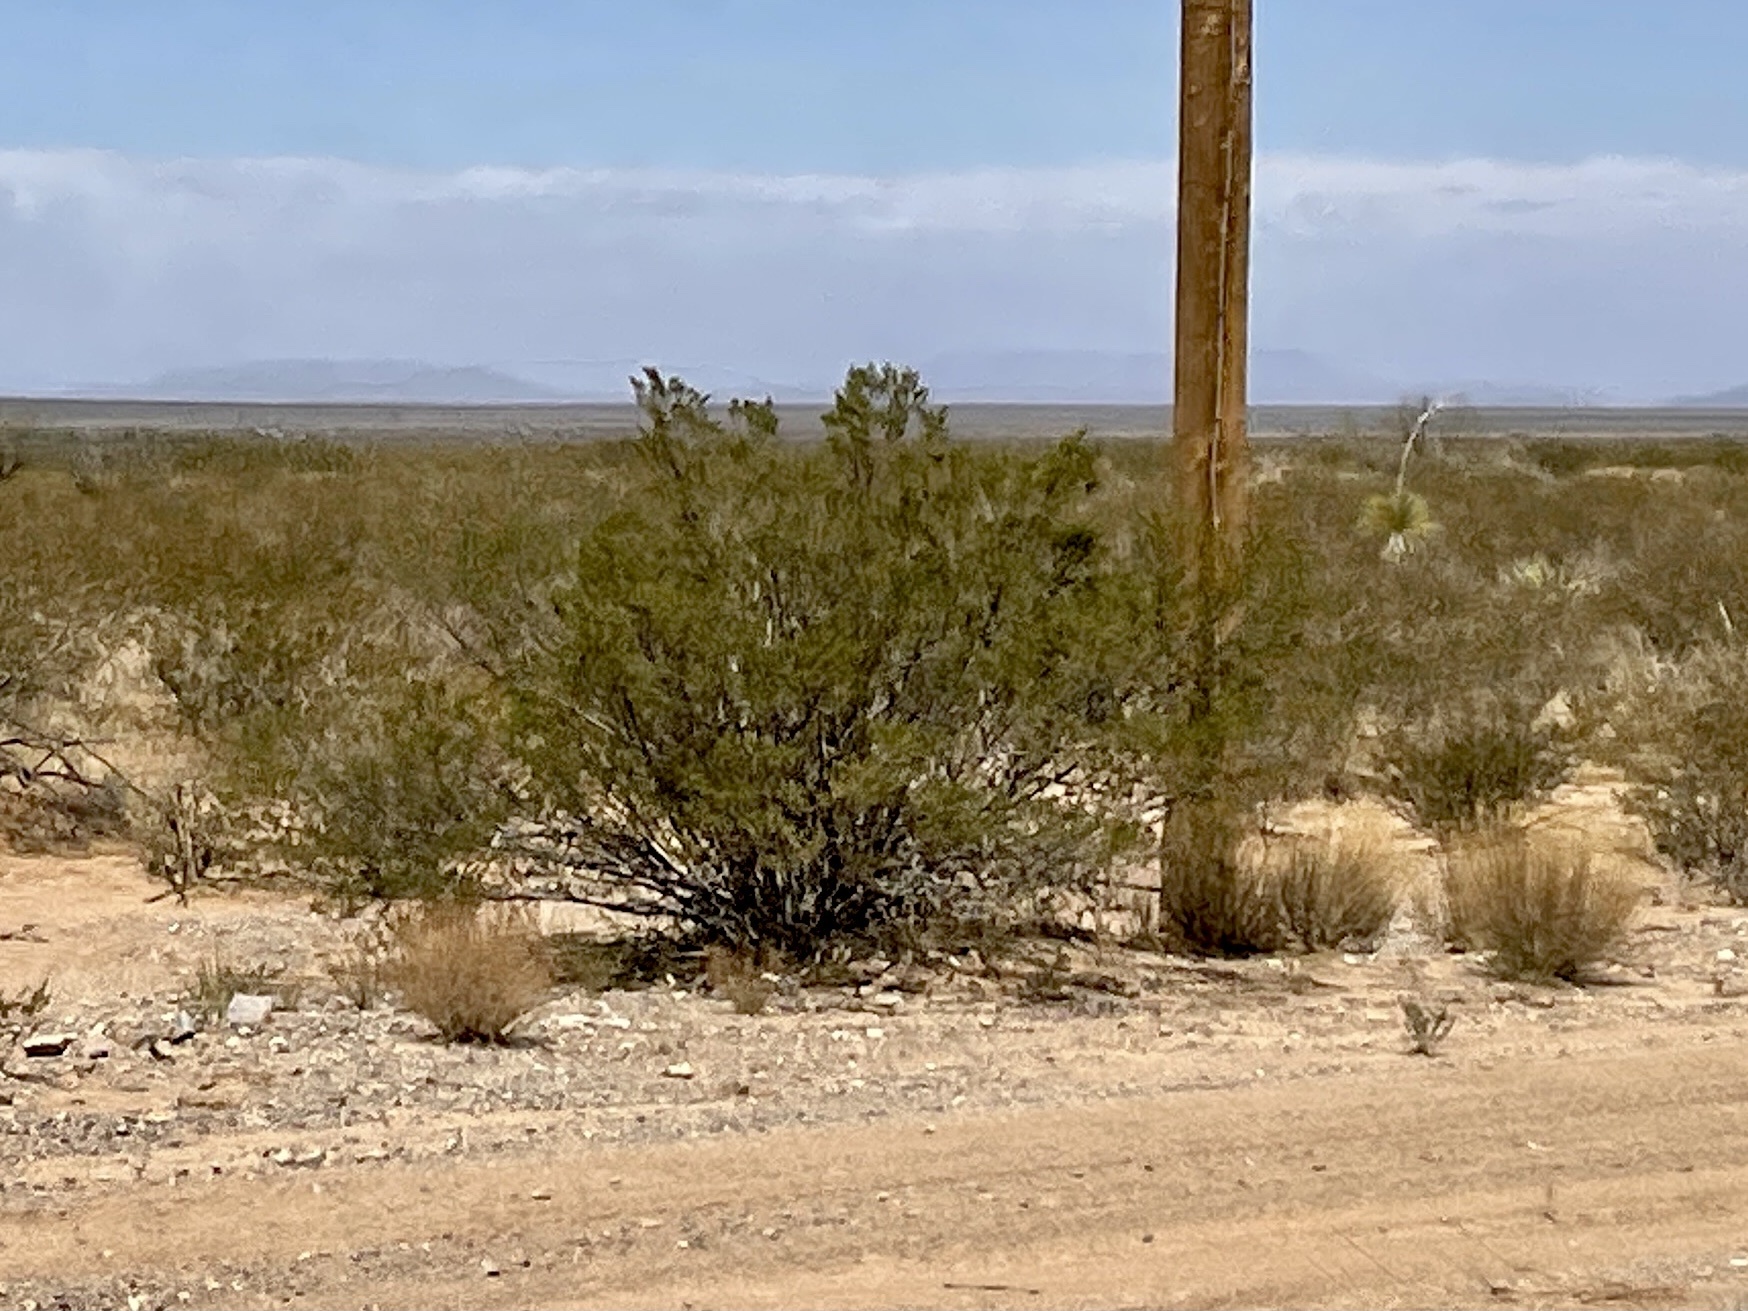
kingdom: Plantae
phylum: Tracheophyta
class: Magnoliopsida
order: Zygophyllales
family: Zygophyllaceae
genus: Larrea
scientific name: Larrea tridentata
